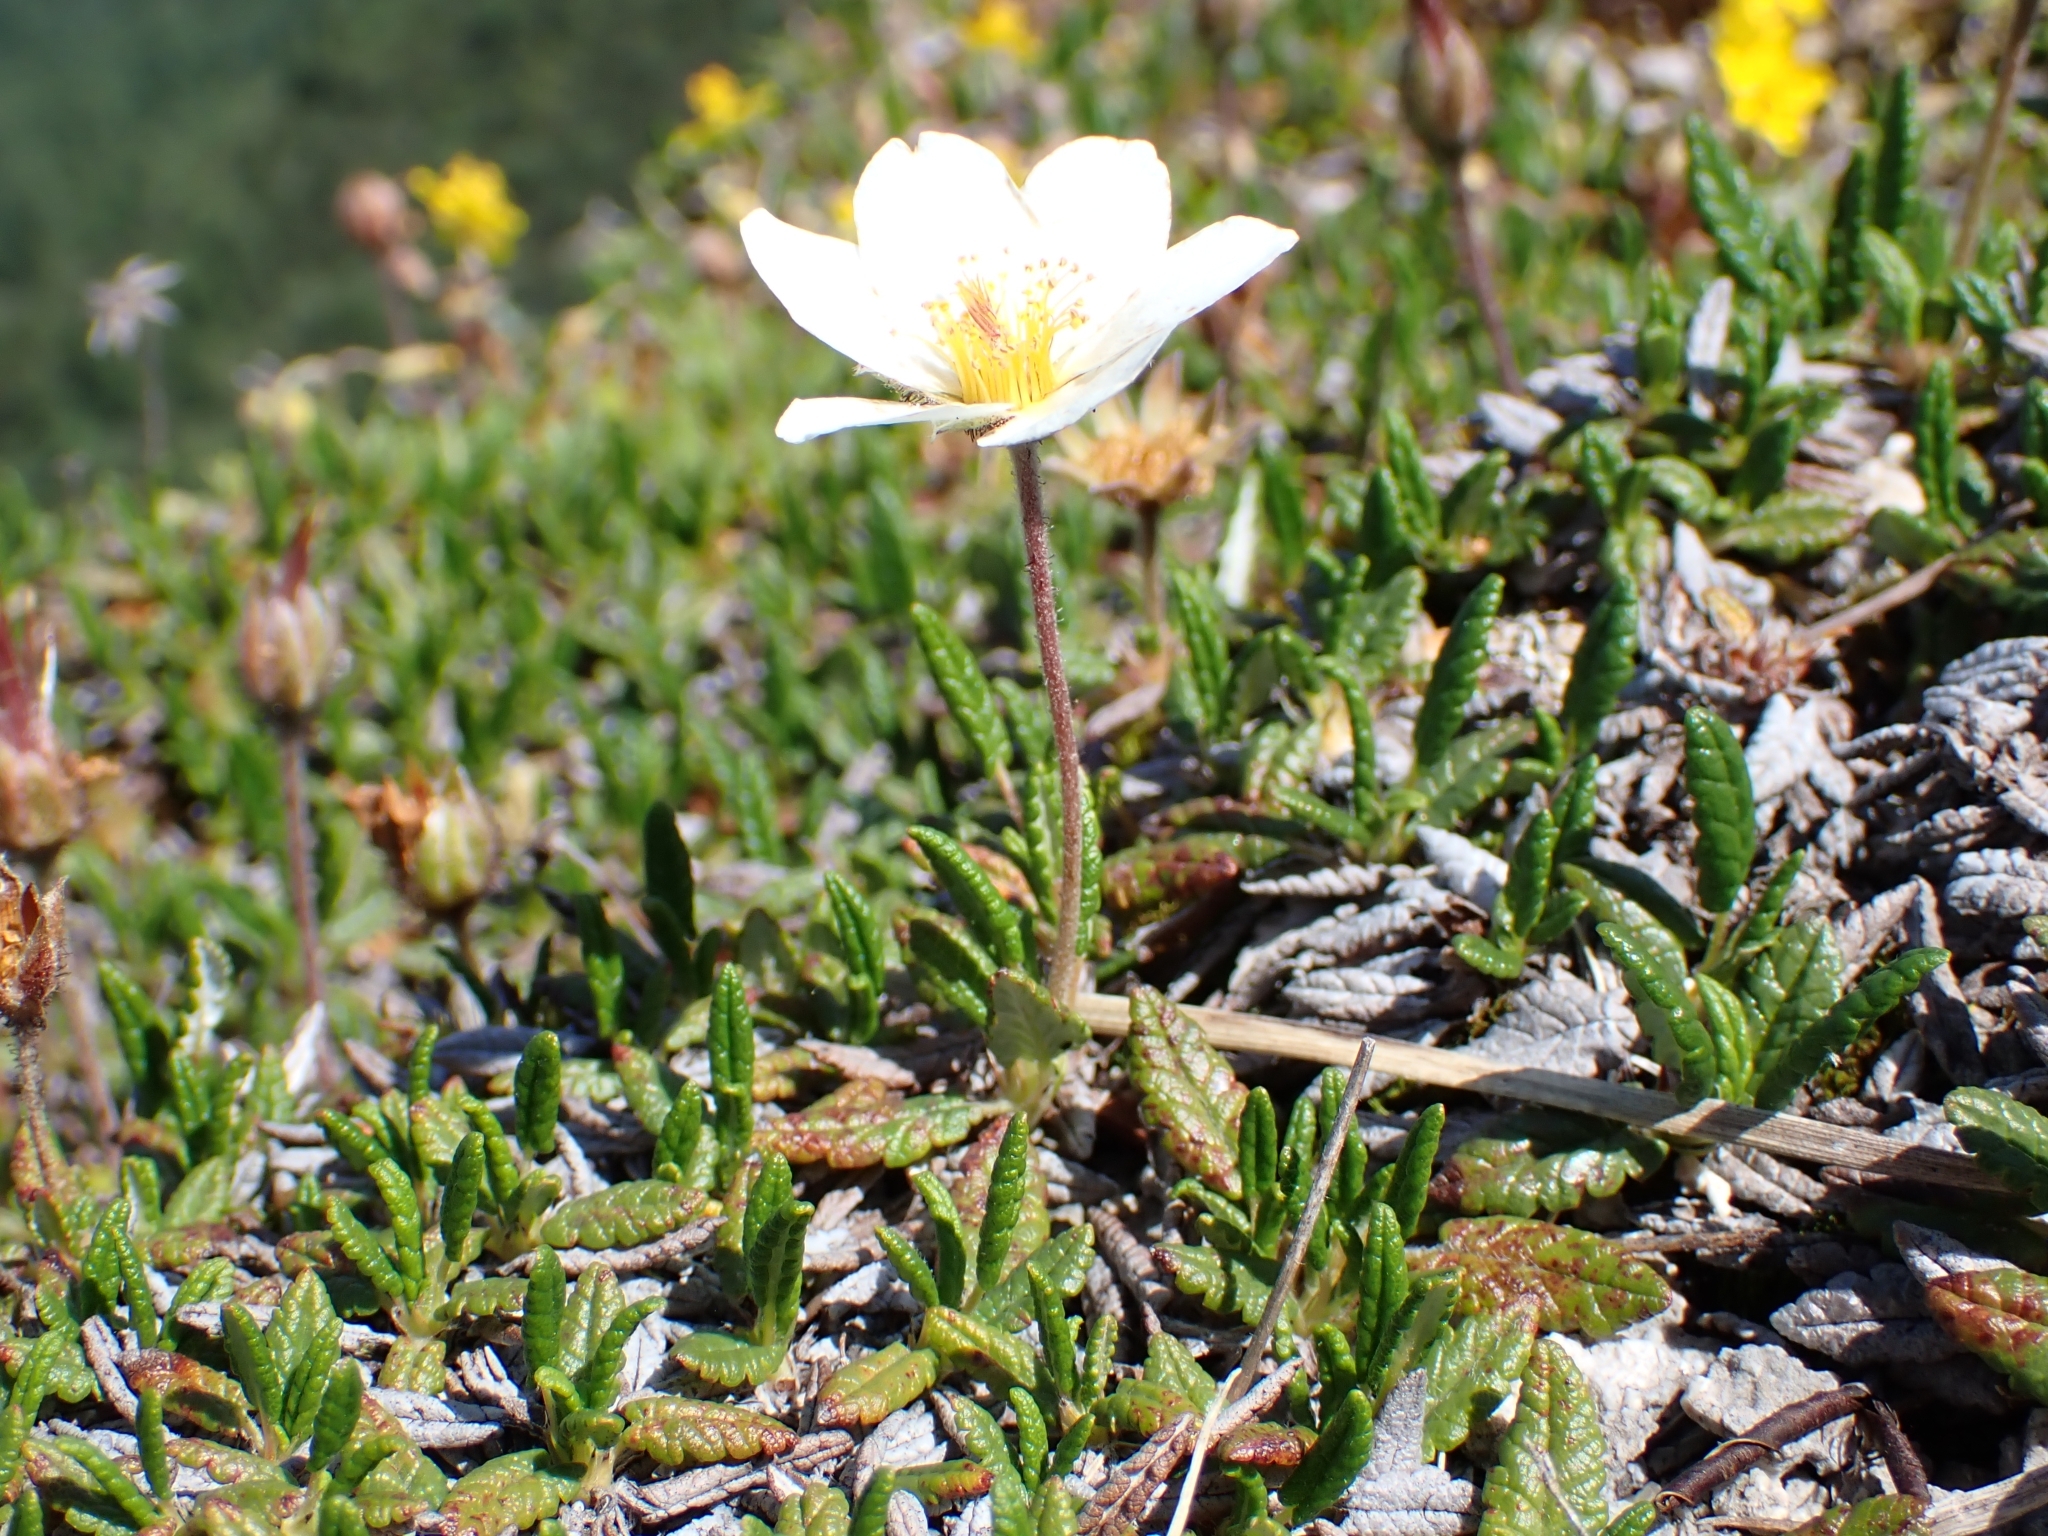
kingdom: Plantae
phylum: Tracheophyta
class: Magnoliopsida
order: Rosales
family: Rosaceae
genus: Dryas
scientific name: Dryas octopetala
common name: Eight-petal mountain-avens
